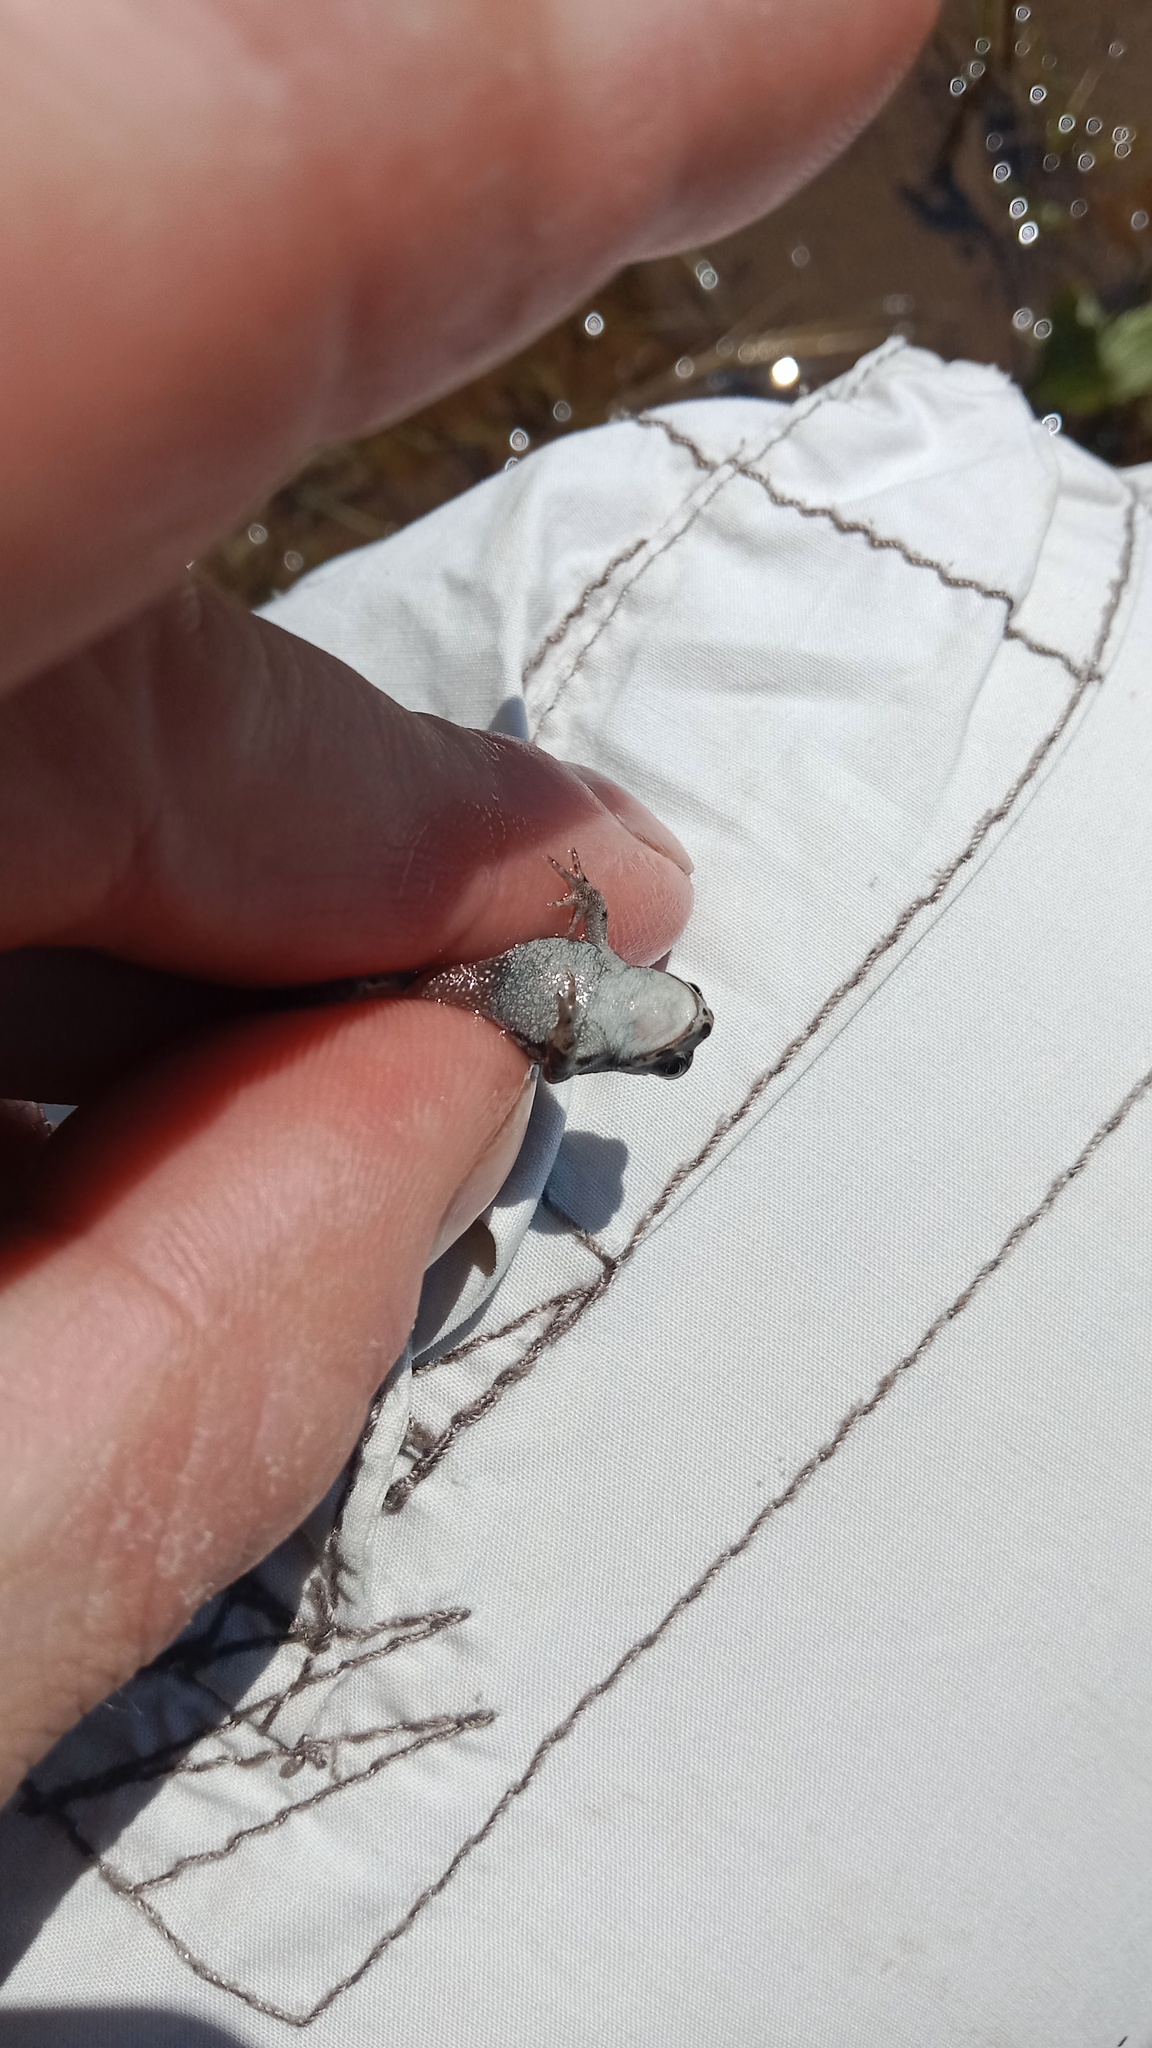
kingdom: Animalia
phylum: Chordata
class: Amphibia
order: Anura
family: Bufonidae
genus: Bufotes
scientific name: Bufotes viridis
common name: European green toad
